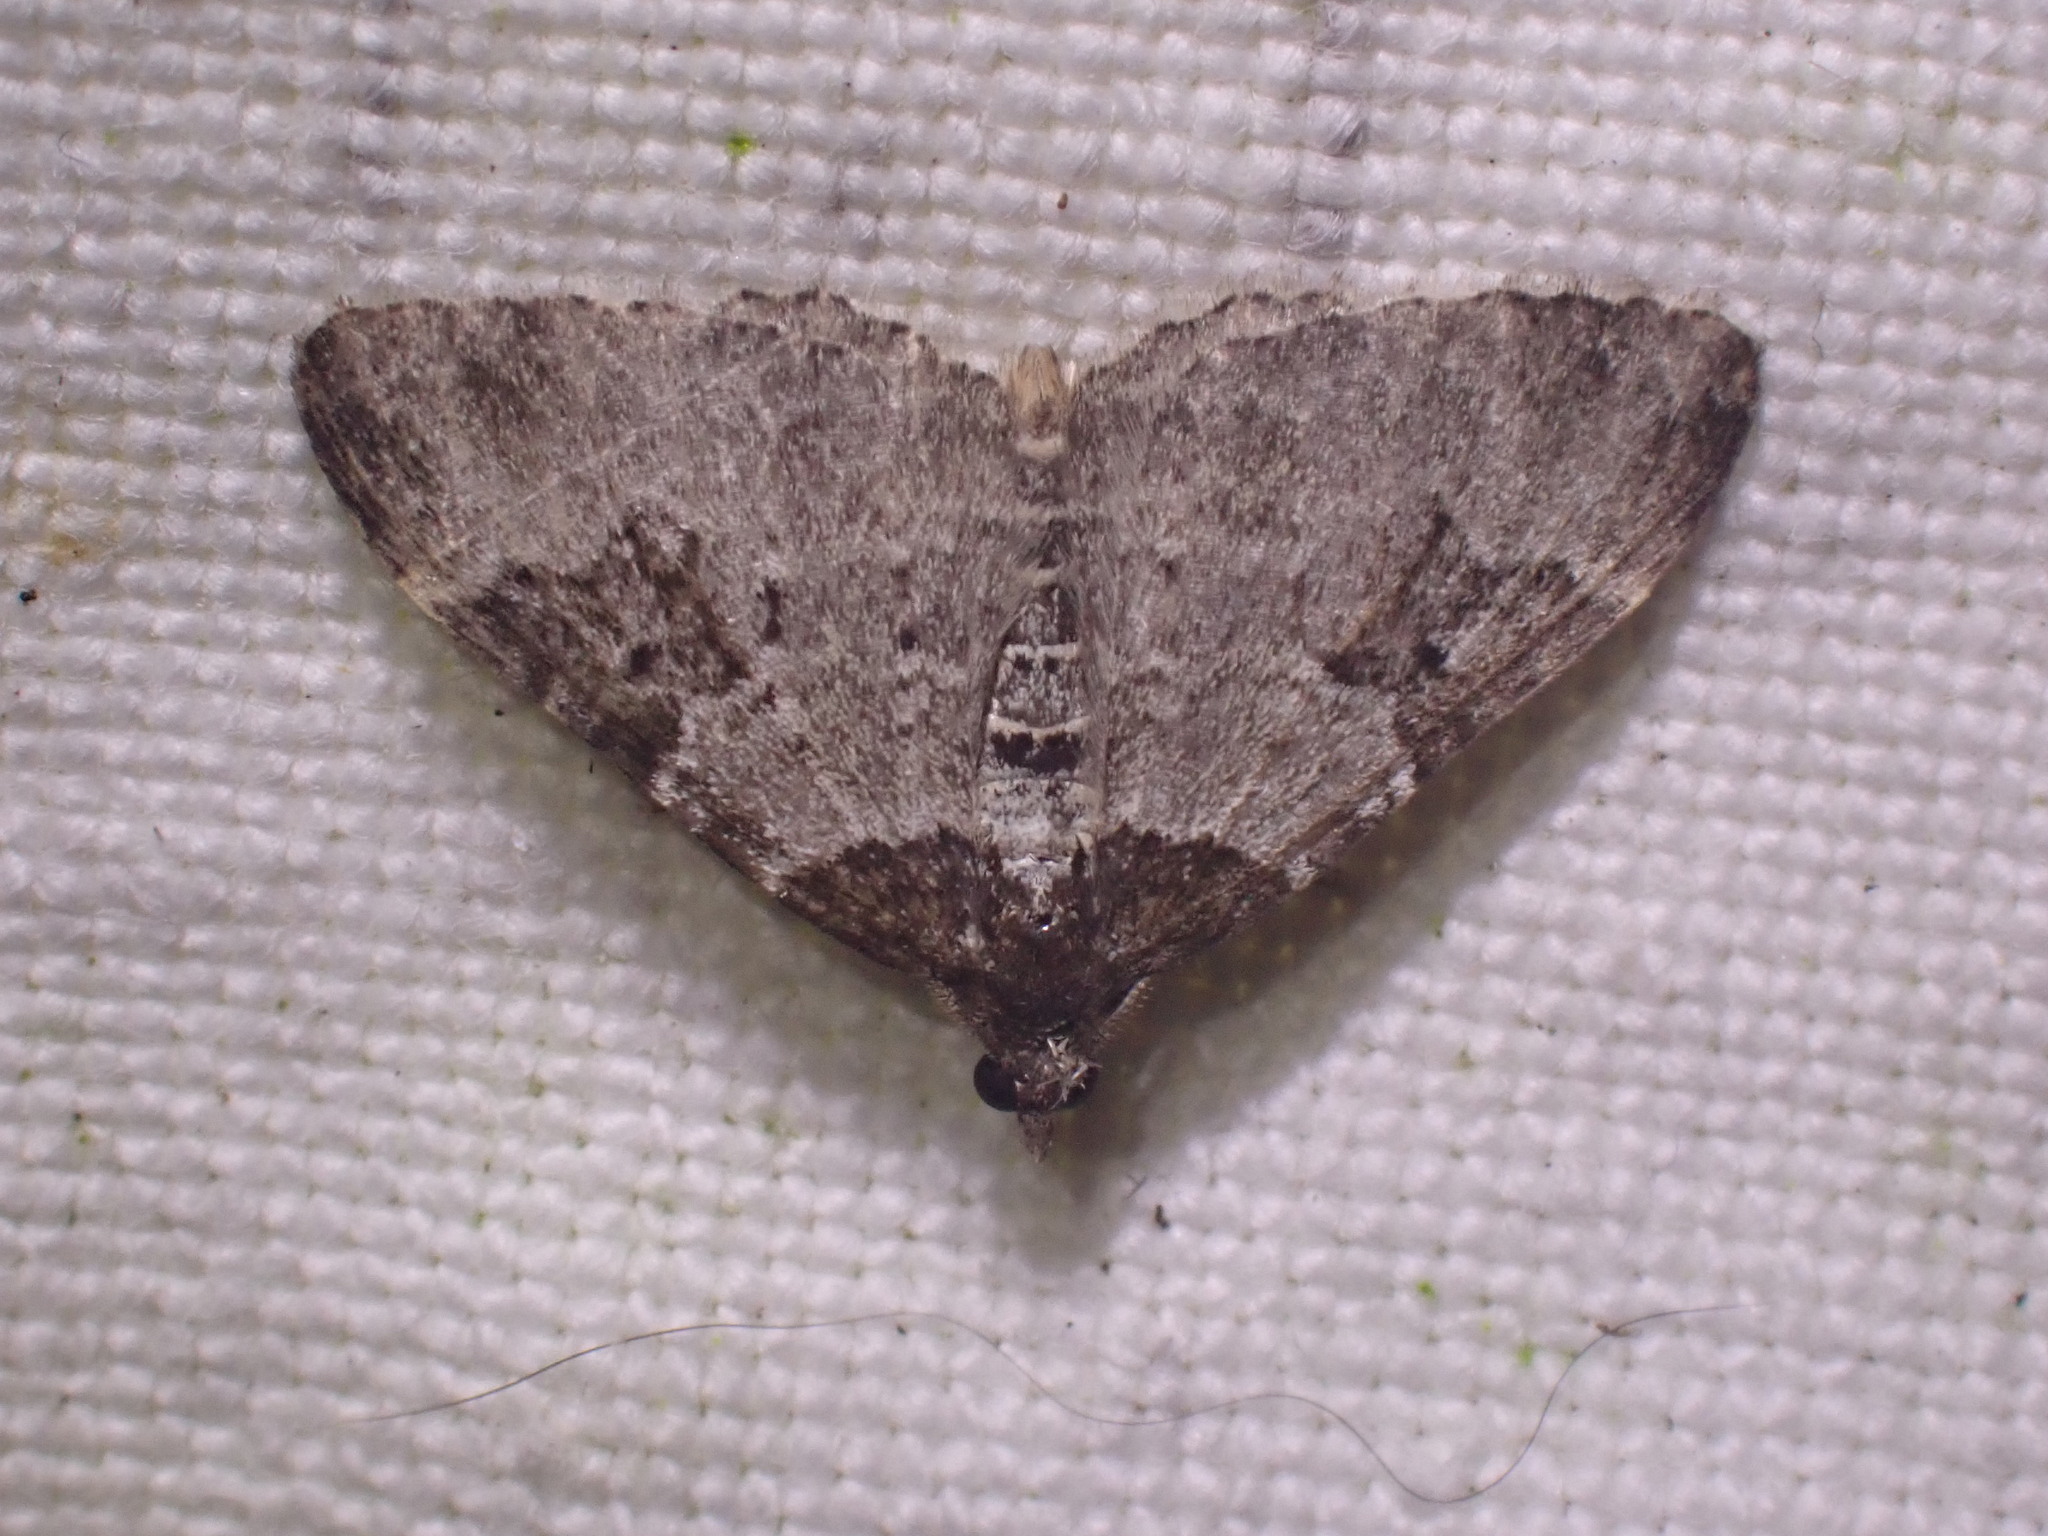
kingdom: Animalia
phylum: Arthropoda
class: Insecta
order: Lepidoptera
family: Geometridae
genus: Xanthorhoe
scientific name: Xanthorhoe fluctuata
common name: Garden carpet
